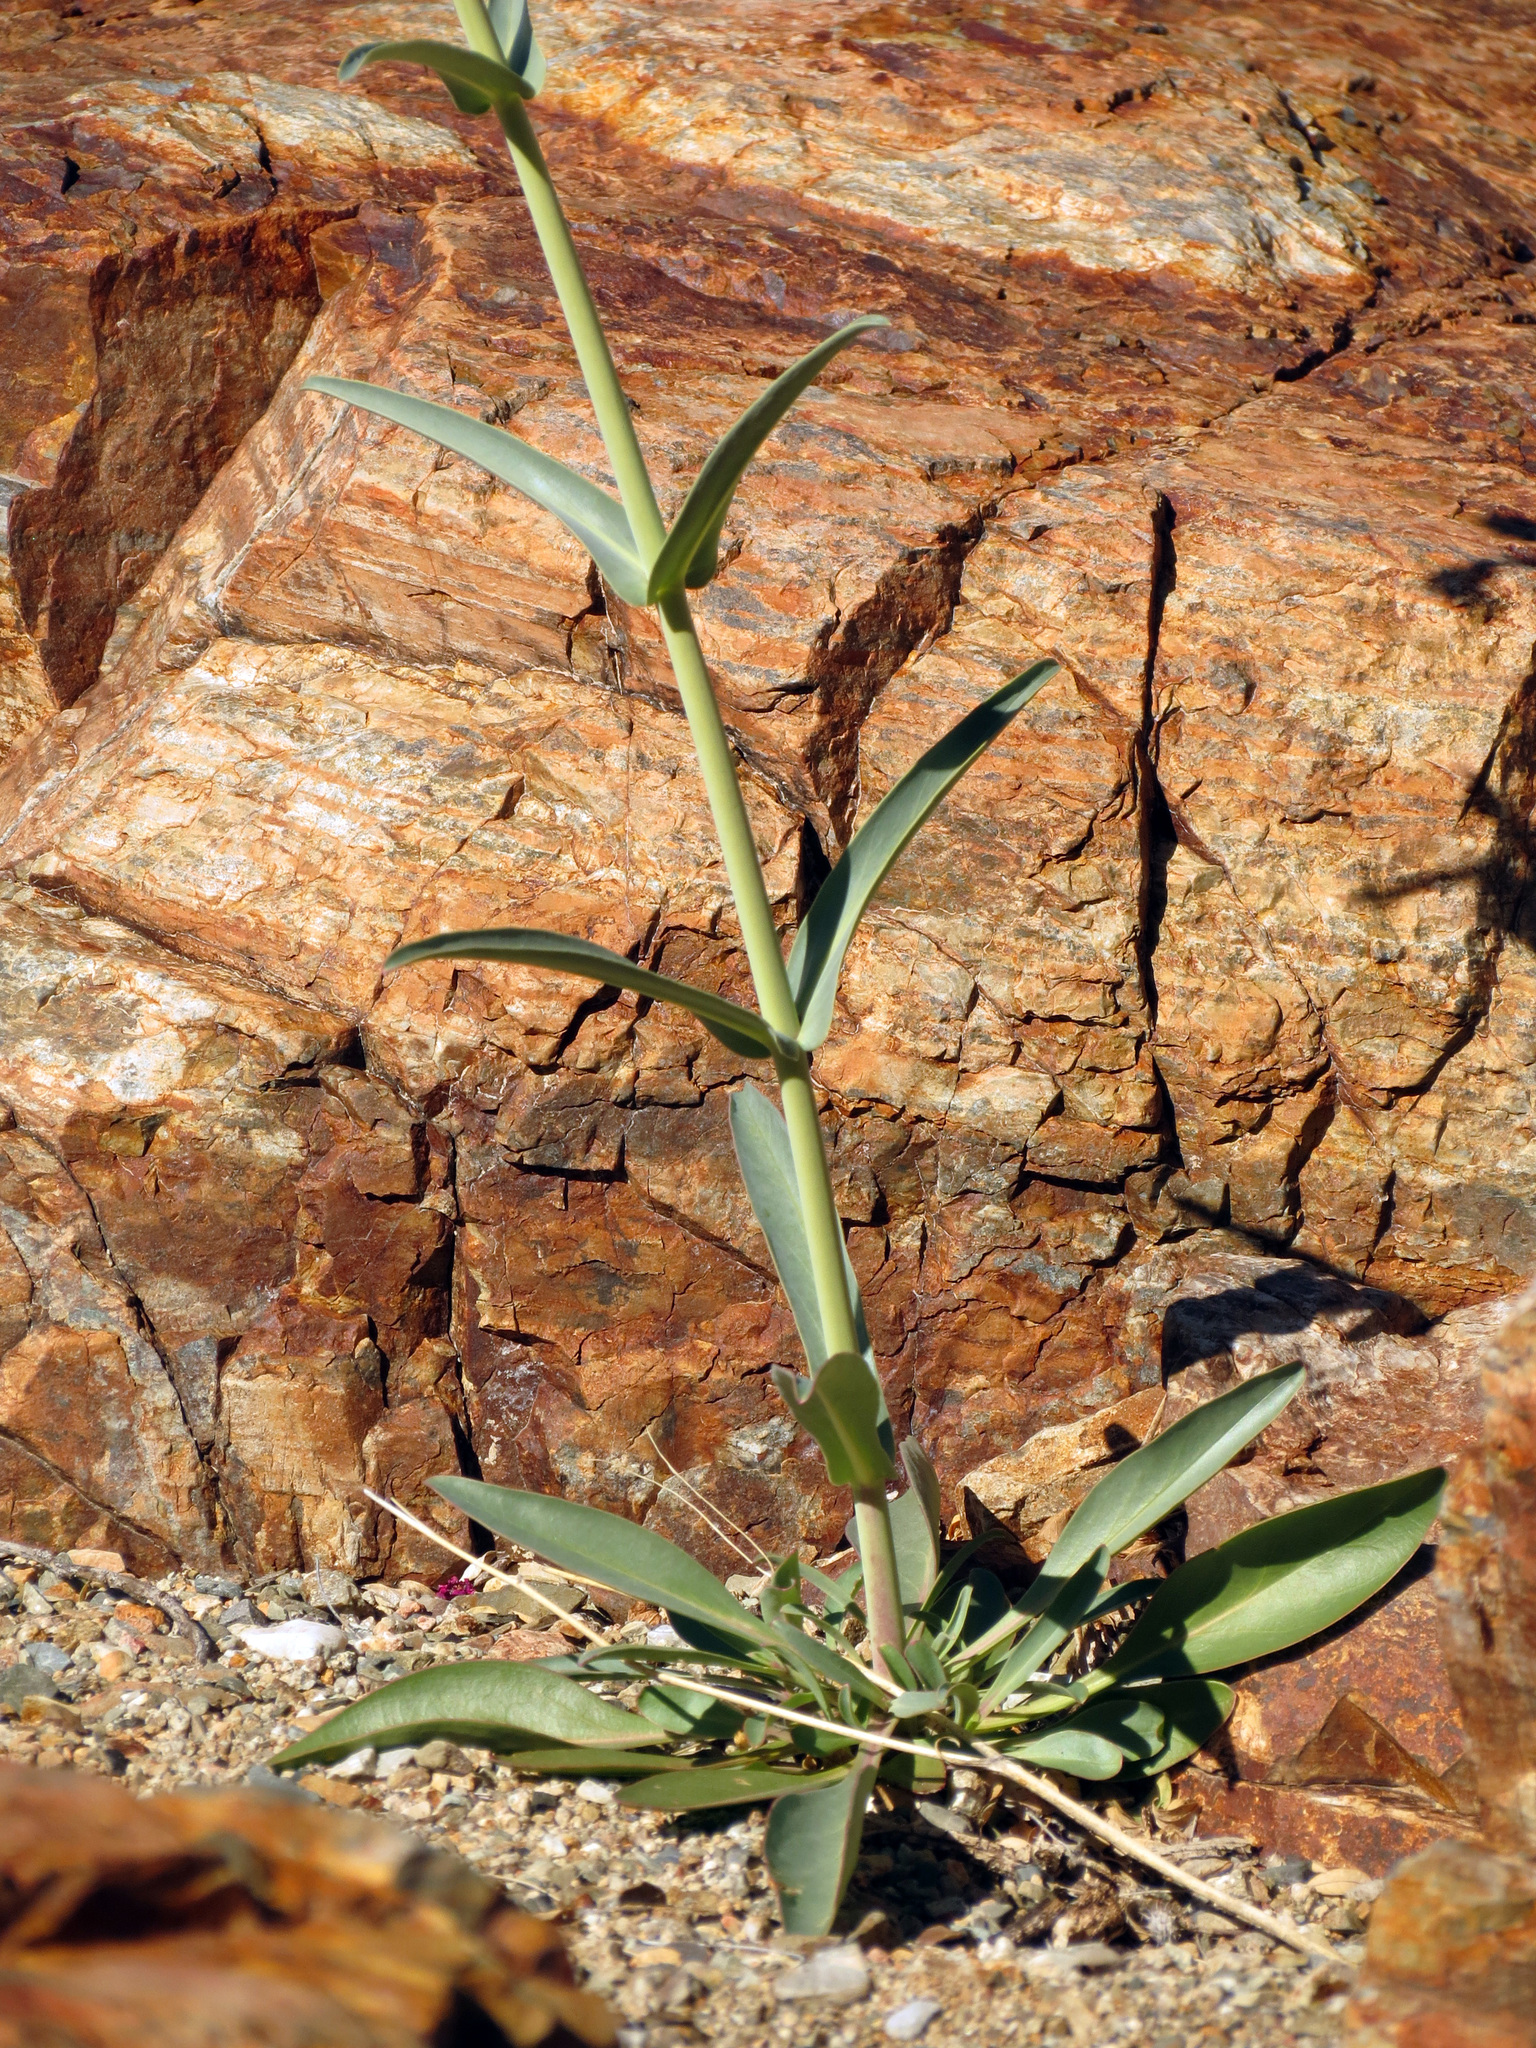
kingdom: Plantae
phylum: Tracheophyta
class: Magnoliopsida
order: Lamiales
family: Plantaginaceae
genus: Penstemon
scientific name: Penstemon parryi
